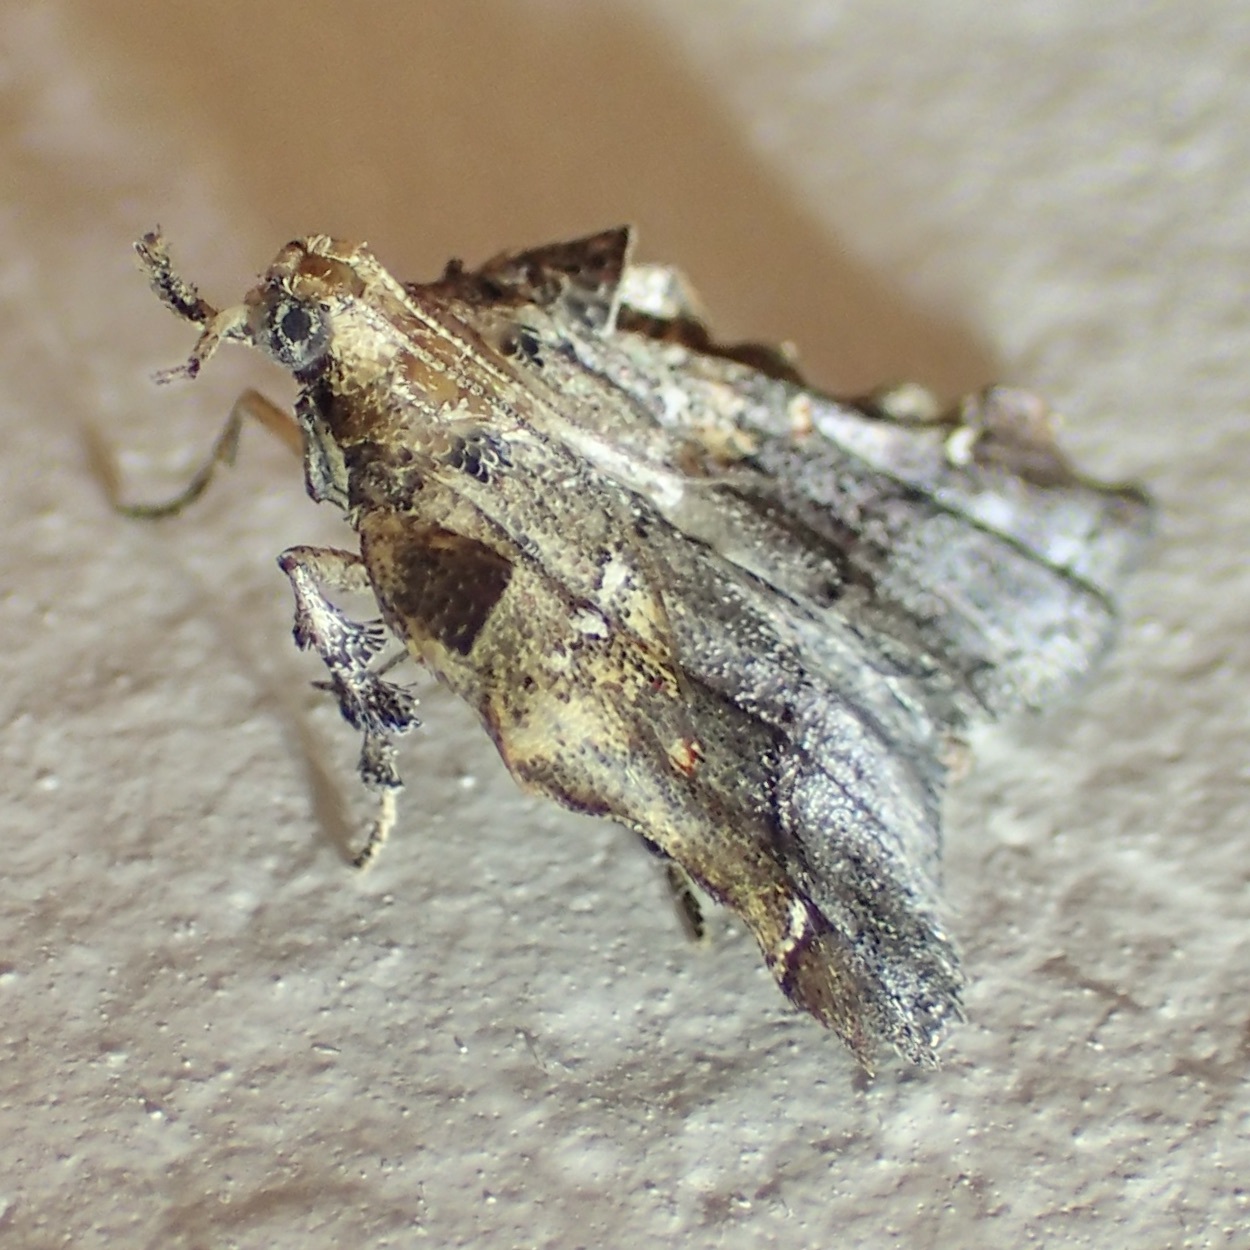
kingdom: Animalia
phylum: Arthropoda
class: Insecta
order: Lepidoptera
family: Pyralidae
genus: Clydonopteron
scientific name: Clydonopteron sacculana
